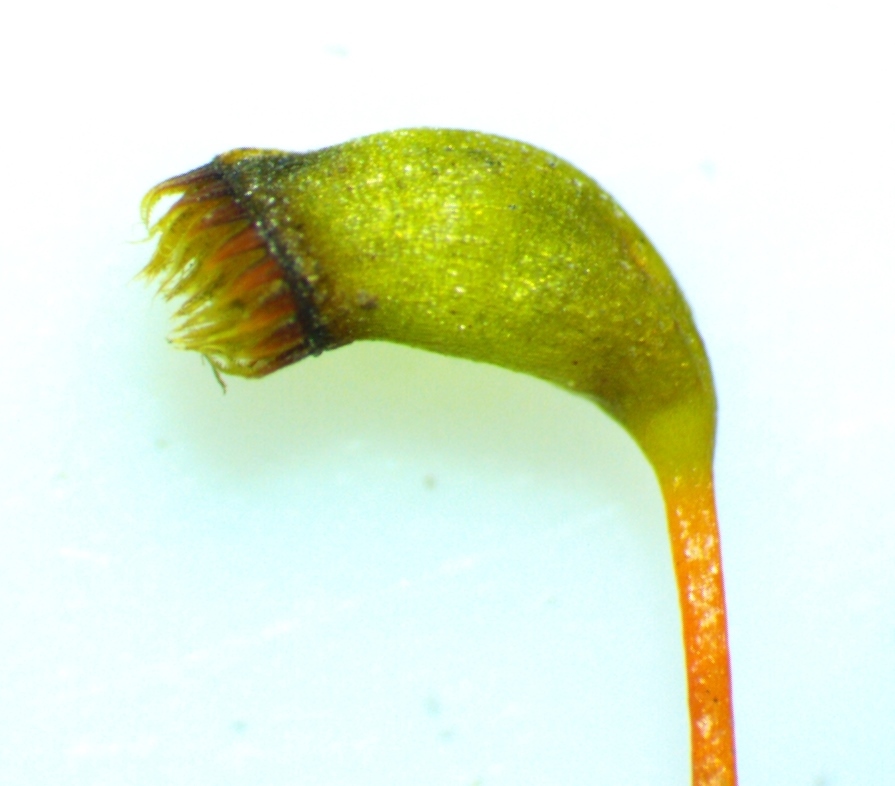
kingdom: Plantae
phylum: Bryophyta
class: Bryopsida
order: Hypnales
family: Pylaisiaceae
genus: Pseudohygrohypnum
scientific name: Pseudohygrohypnum fauriei
